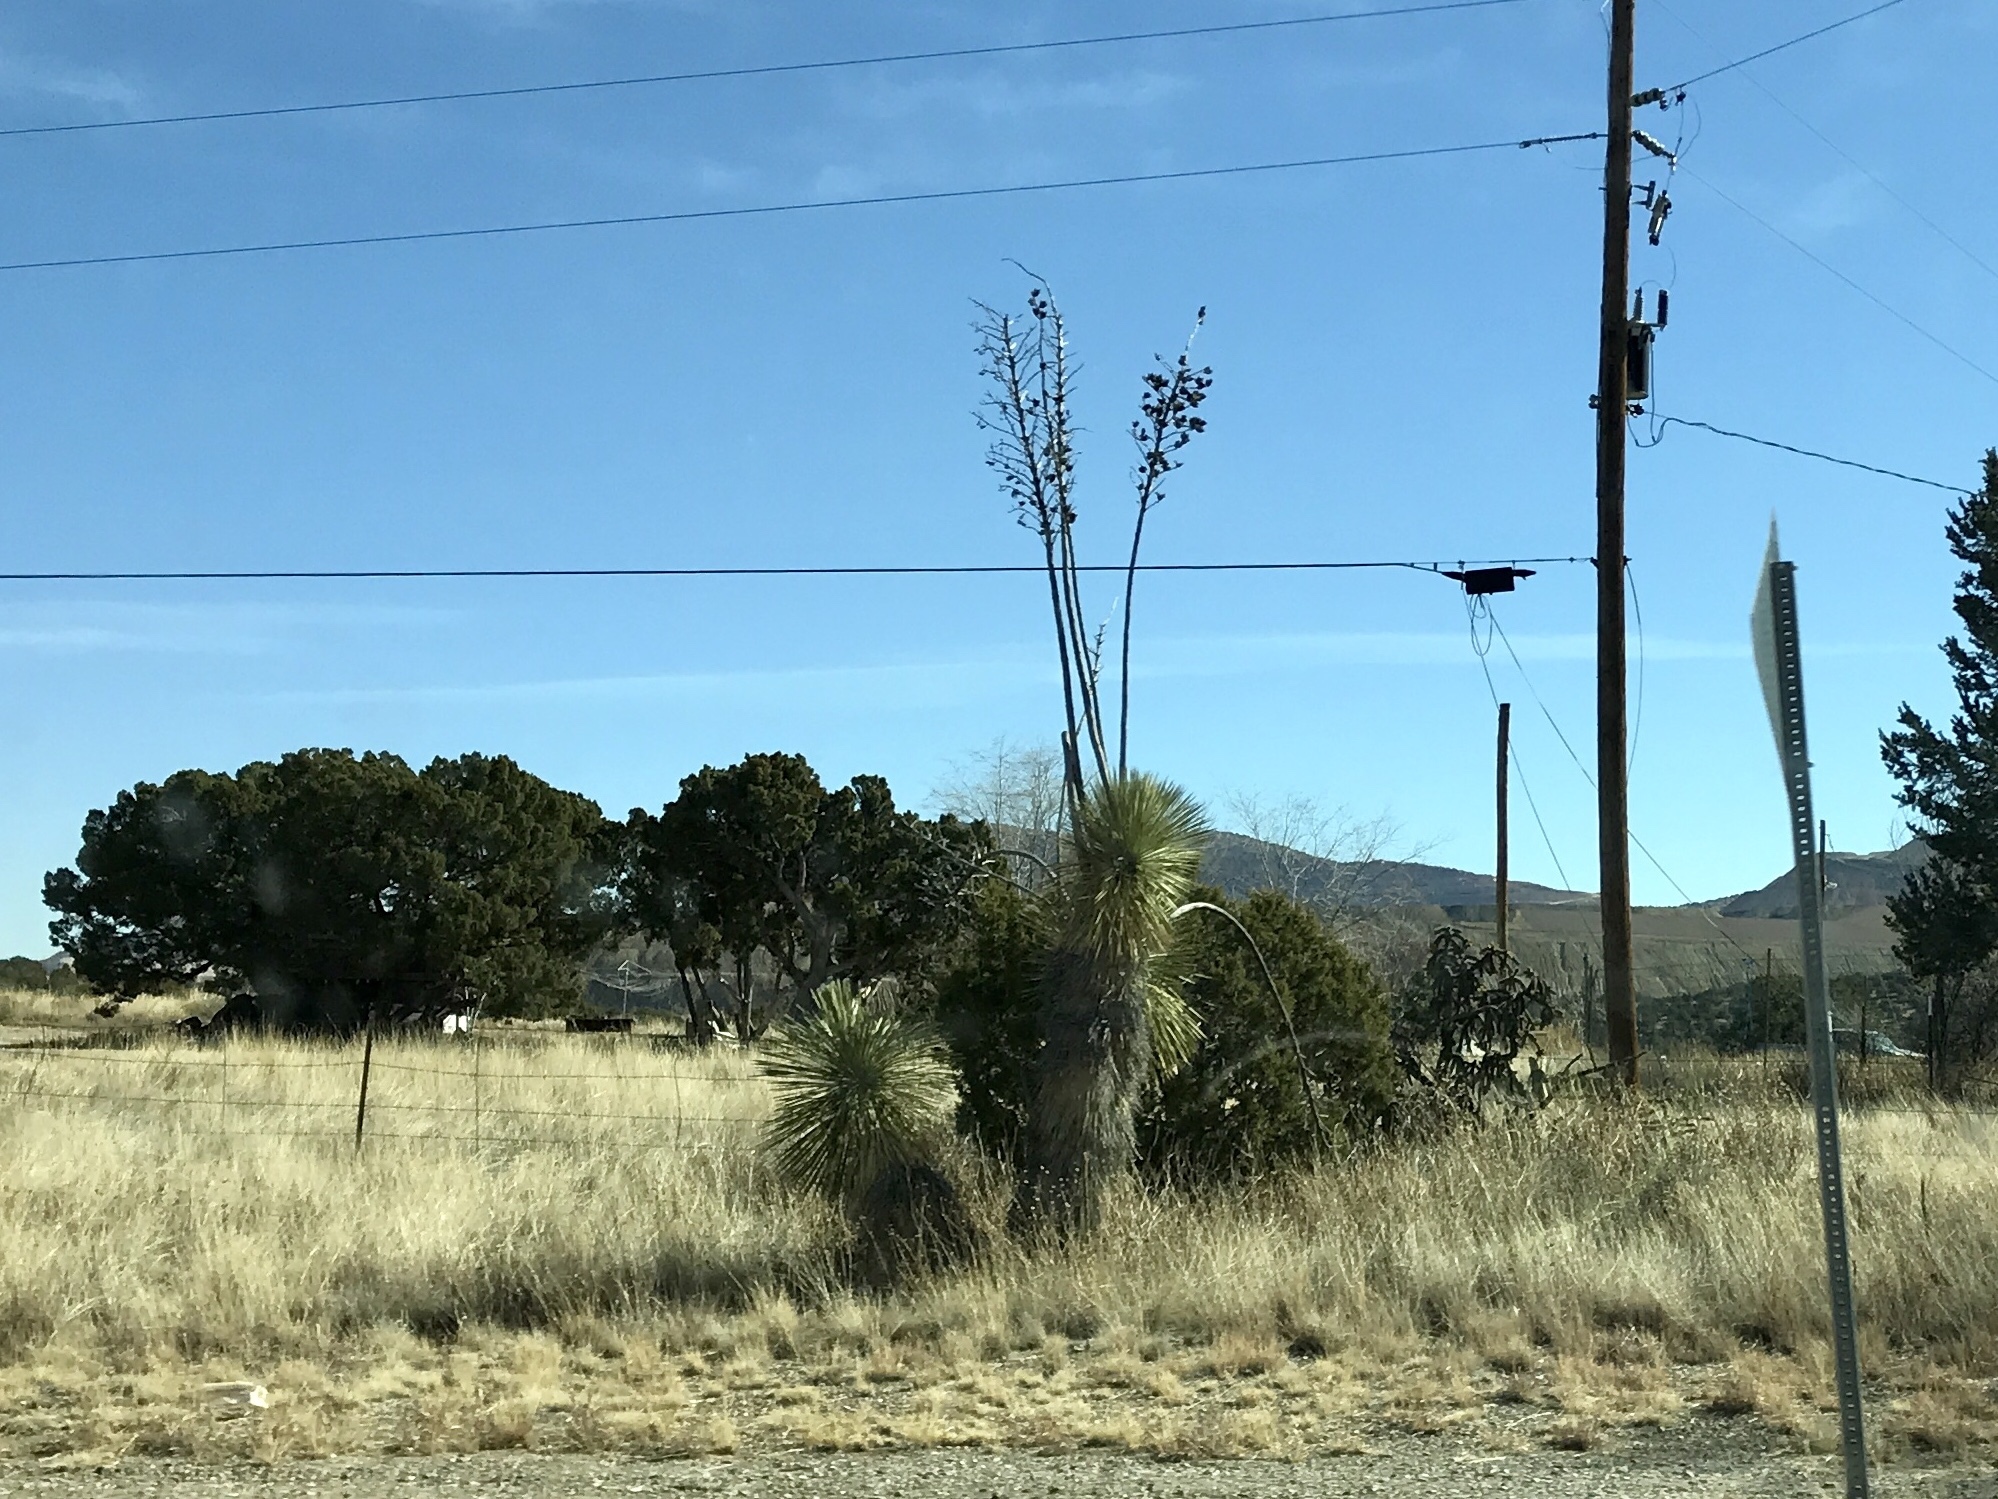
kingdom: Plantae
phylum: Tracheophyta
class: Liliopsida
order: Asparagales
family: Asparagaceae
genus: Yucca
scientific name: Yucca elata
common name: Palmella
